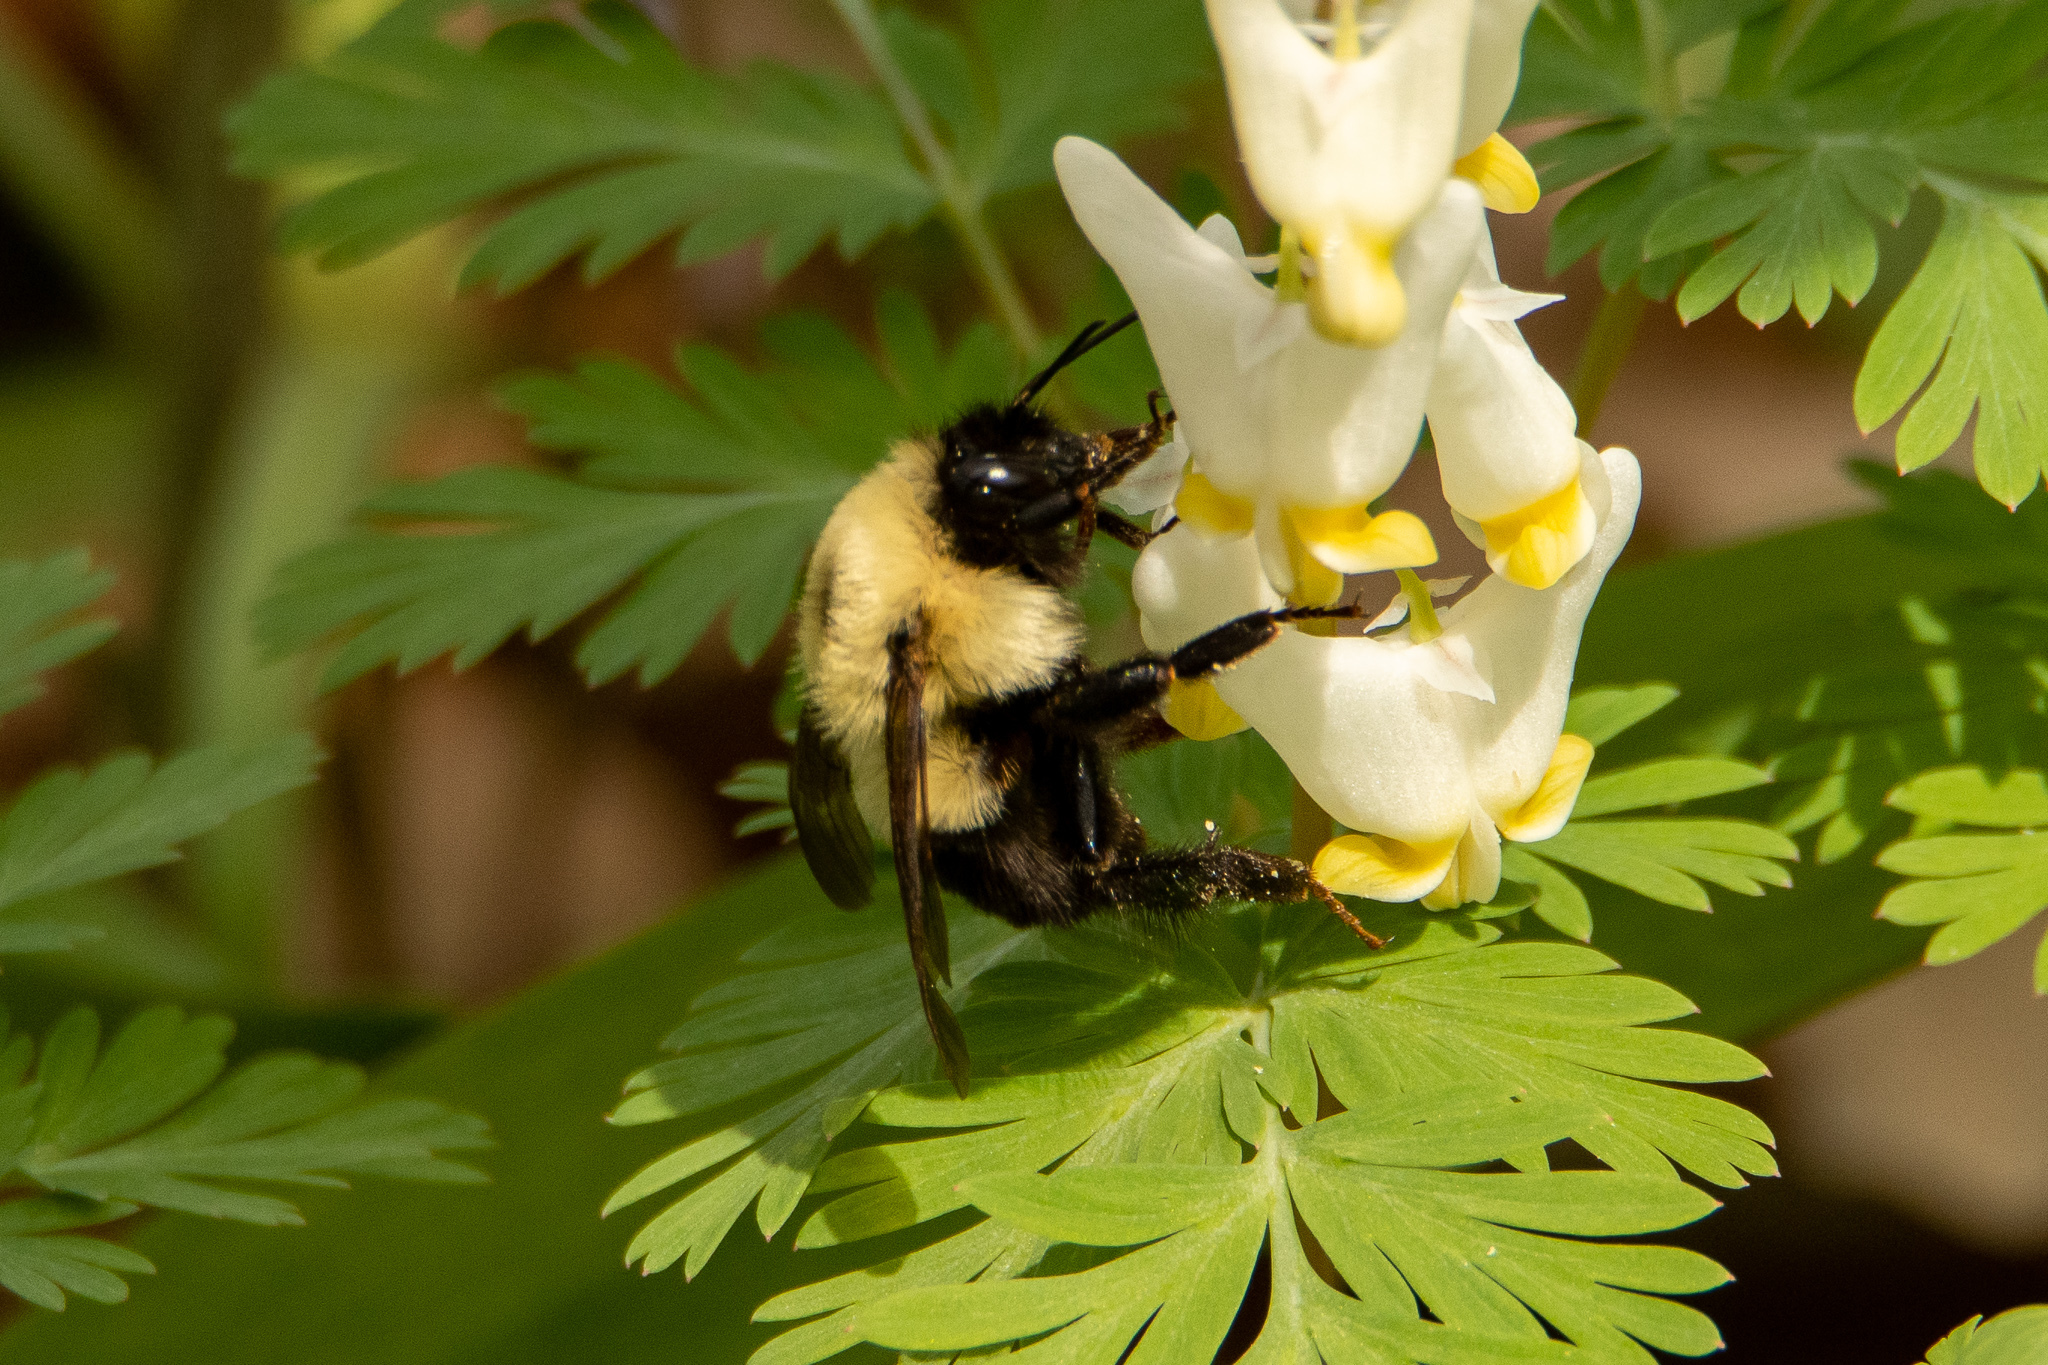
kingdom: Animalia
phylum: Arthropoda
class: Insecta
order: Hymenoptera
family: Apidae
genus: Bombus
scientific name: Bombus bimaculatus
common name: Two-spotted bumble bee
